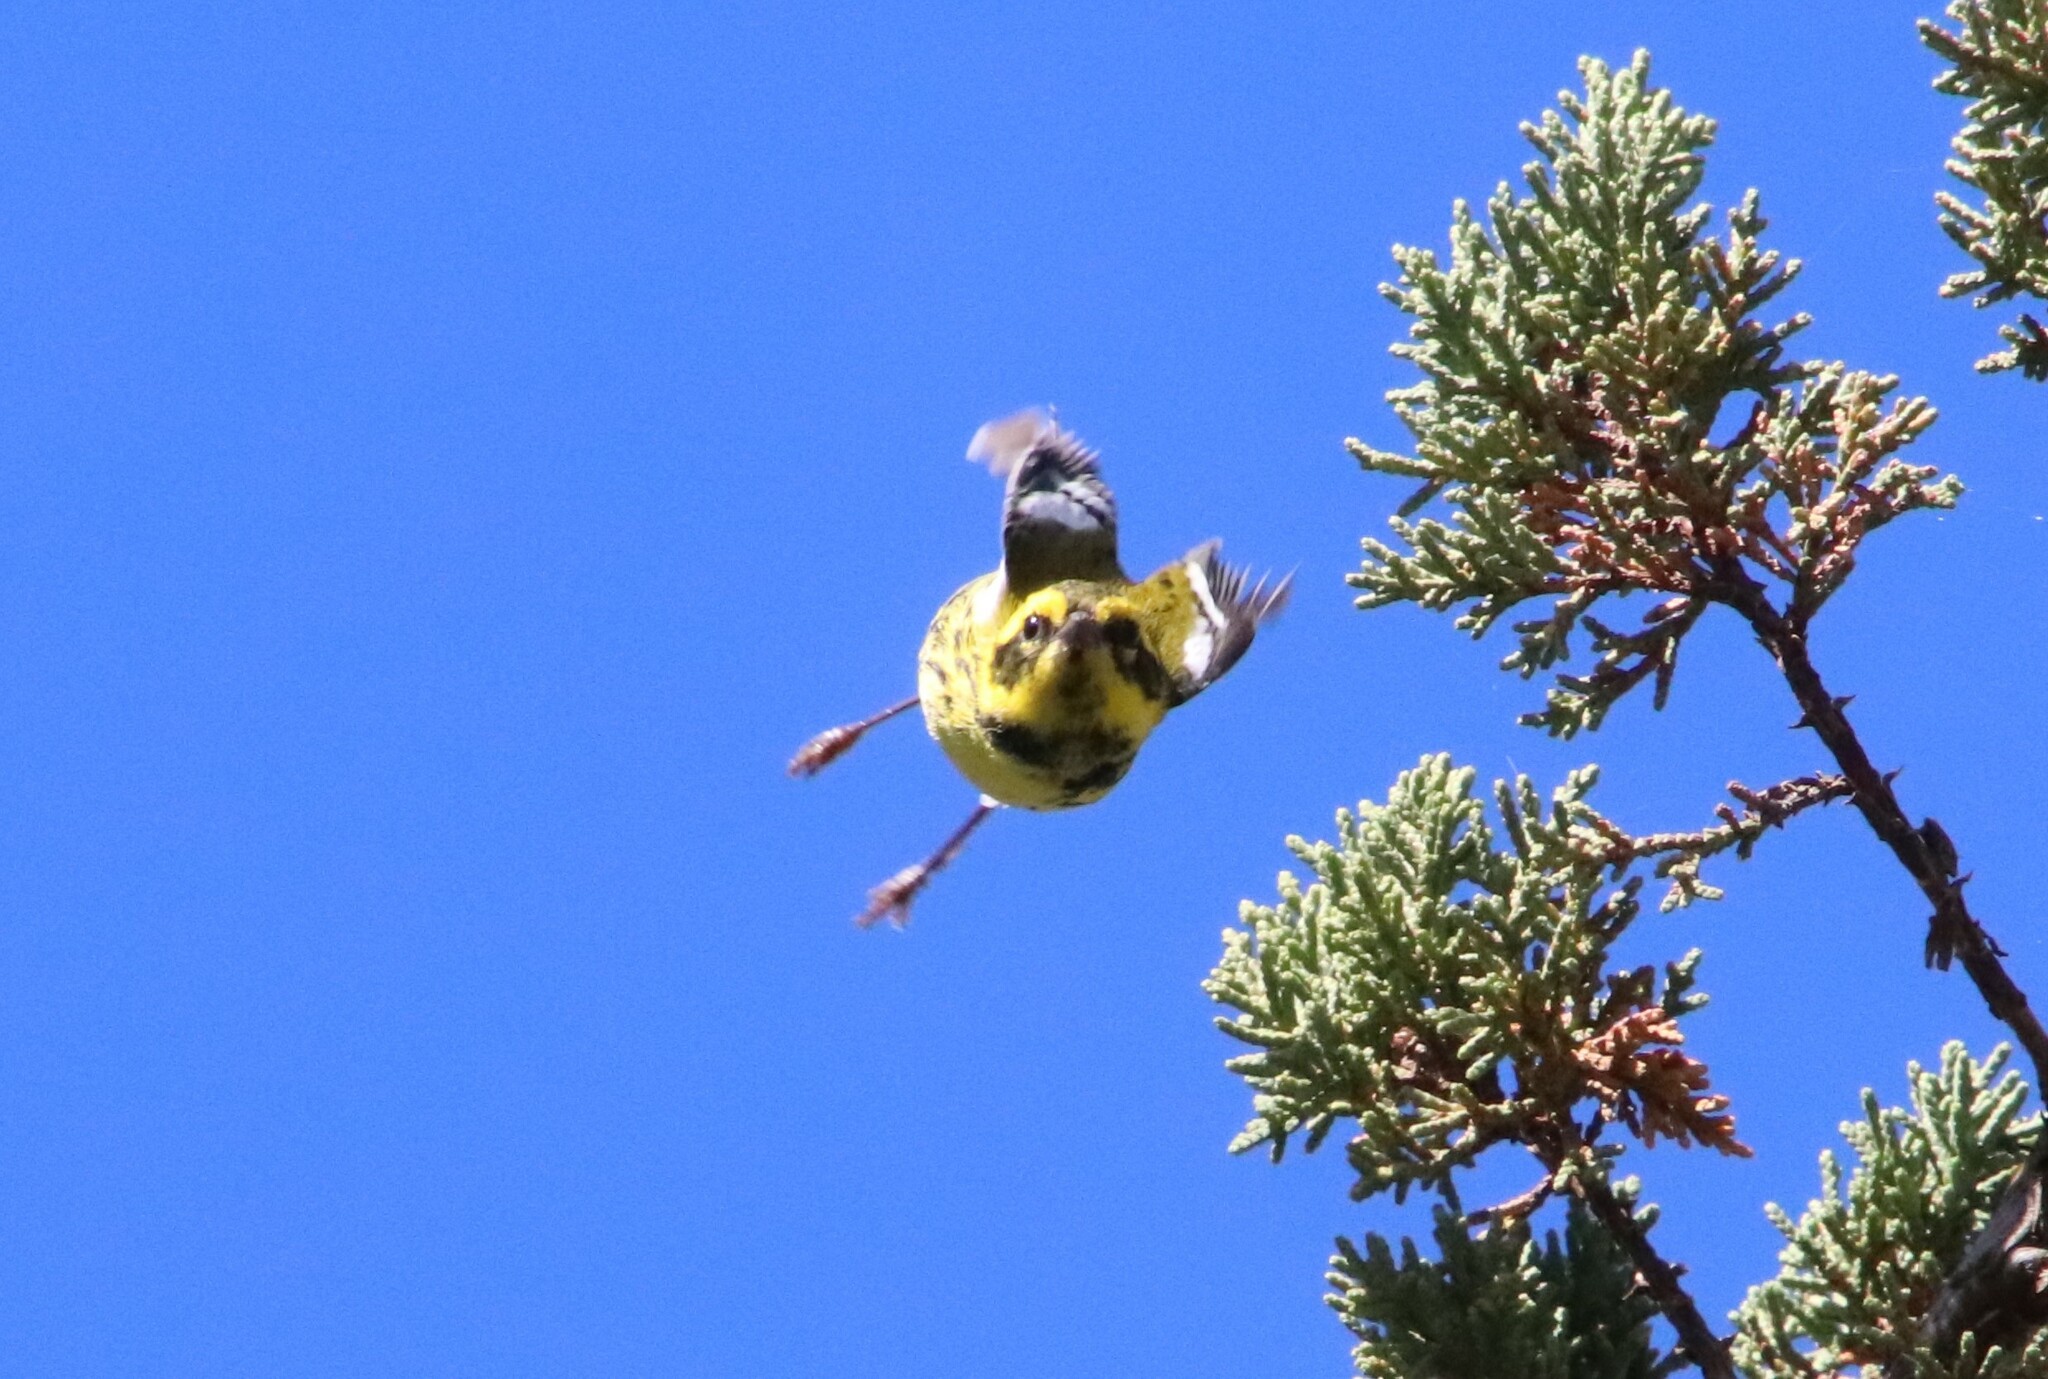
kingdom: Animalia
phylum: Chordata
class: Aves
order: Passeriformes
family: Parulidae
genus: Setophaga
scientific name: Setophaga townsendi
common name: Townsend's warbler
